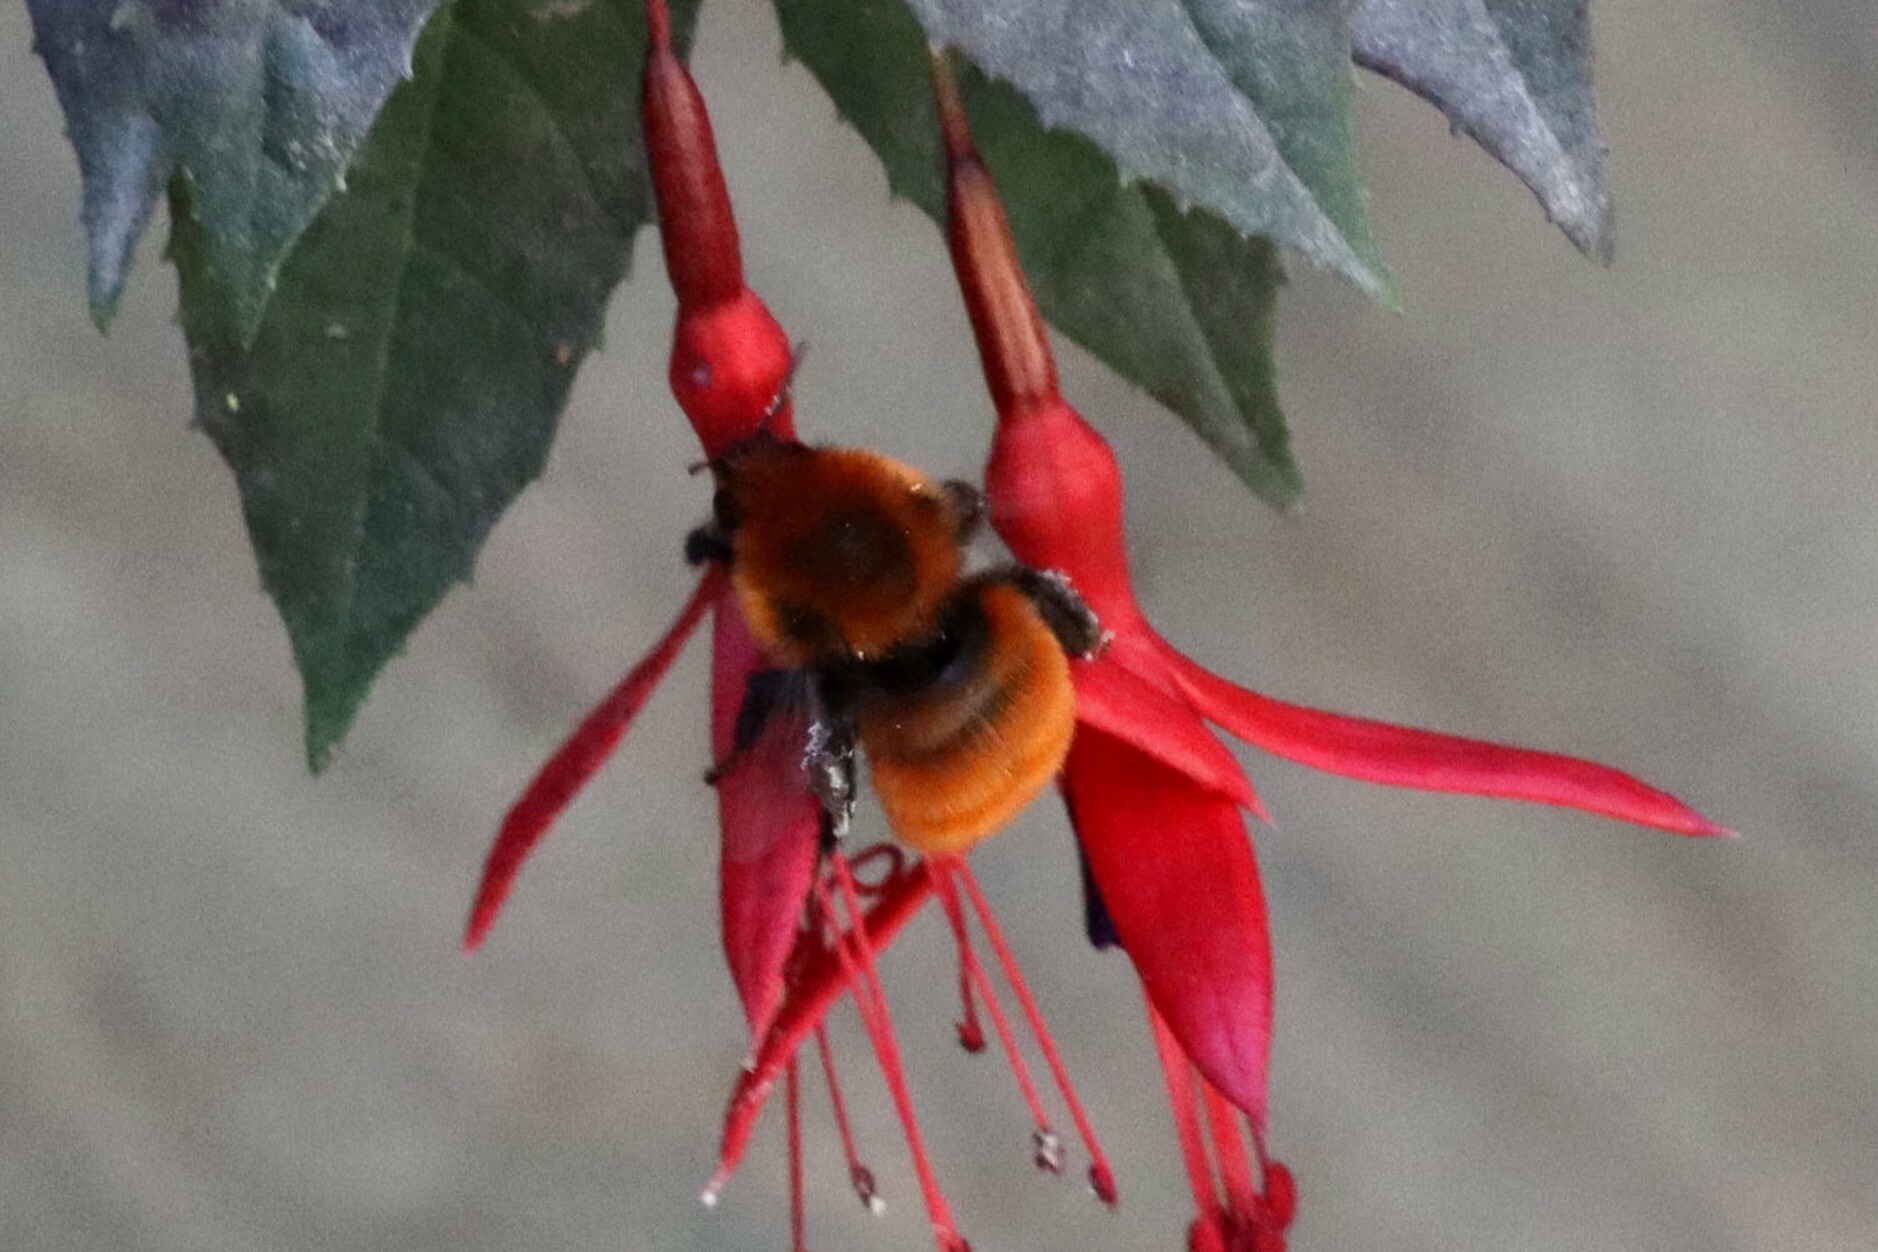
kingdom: Animalia
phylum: Arthropoda
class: Insecta
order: Hymenoptera
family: Apidae
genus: Bombus
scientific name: Bombus dahlbomii
